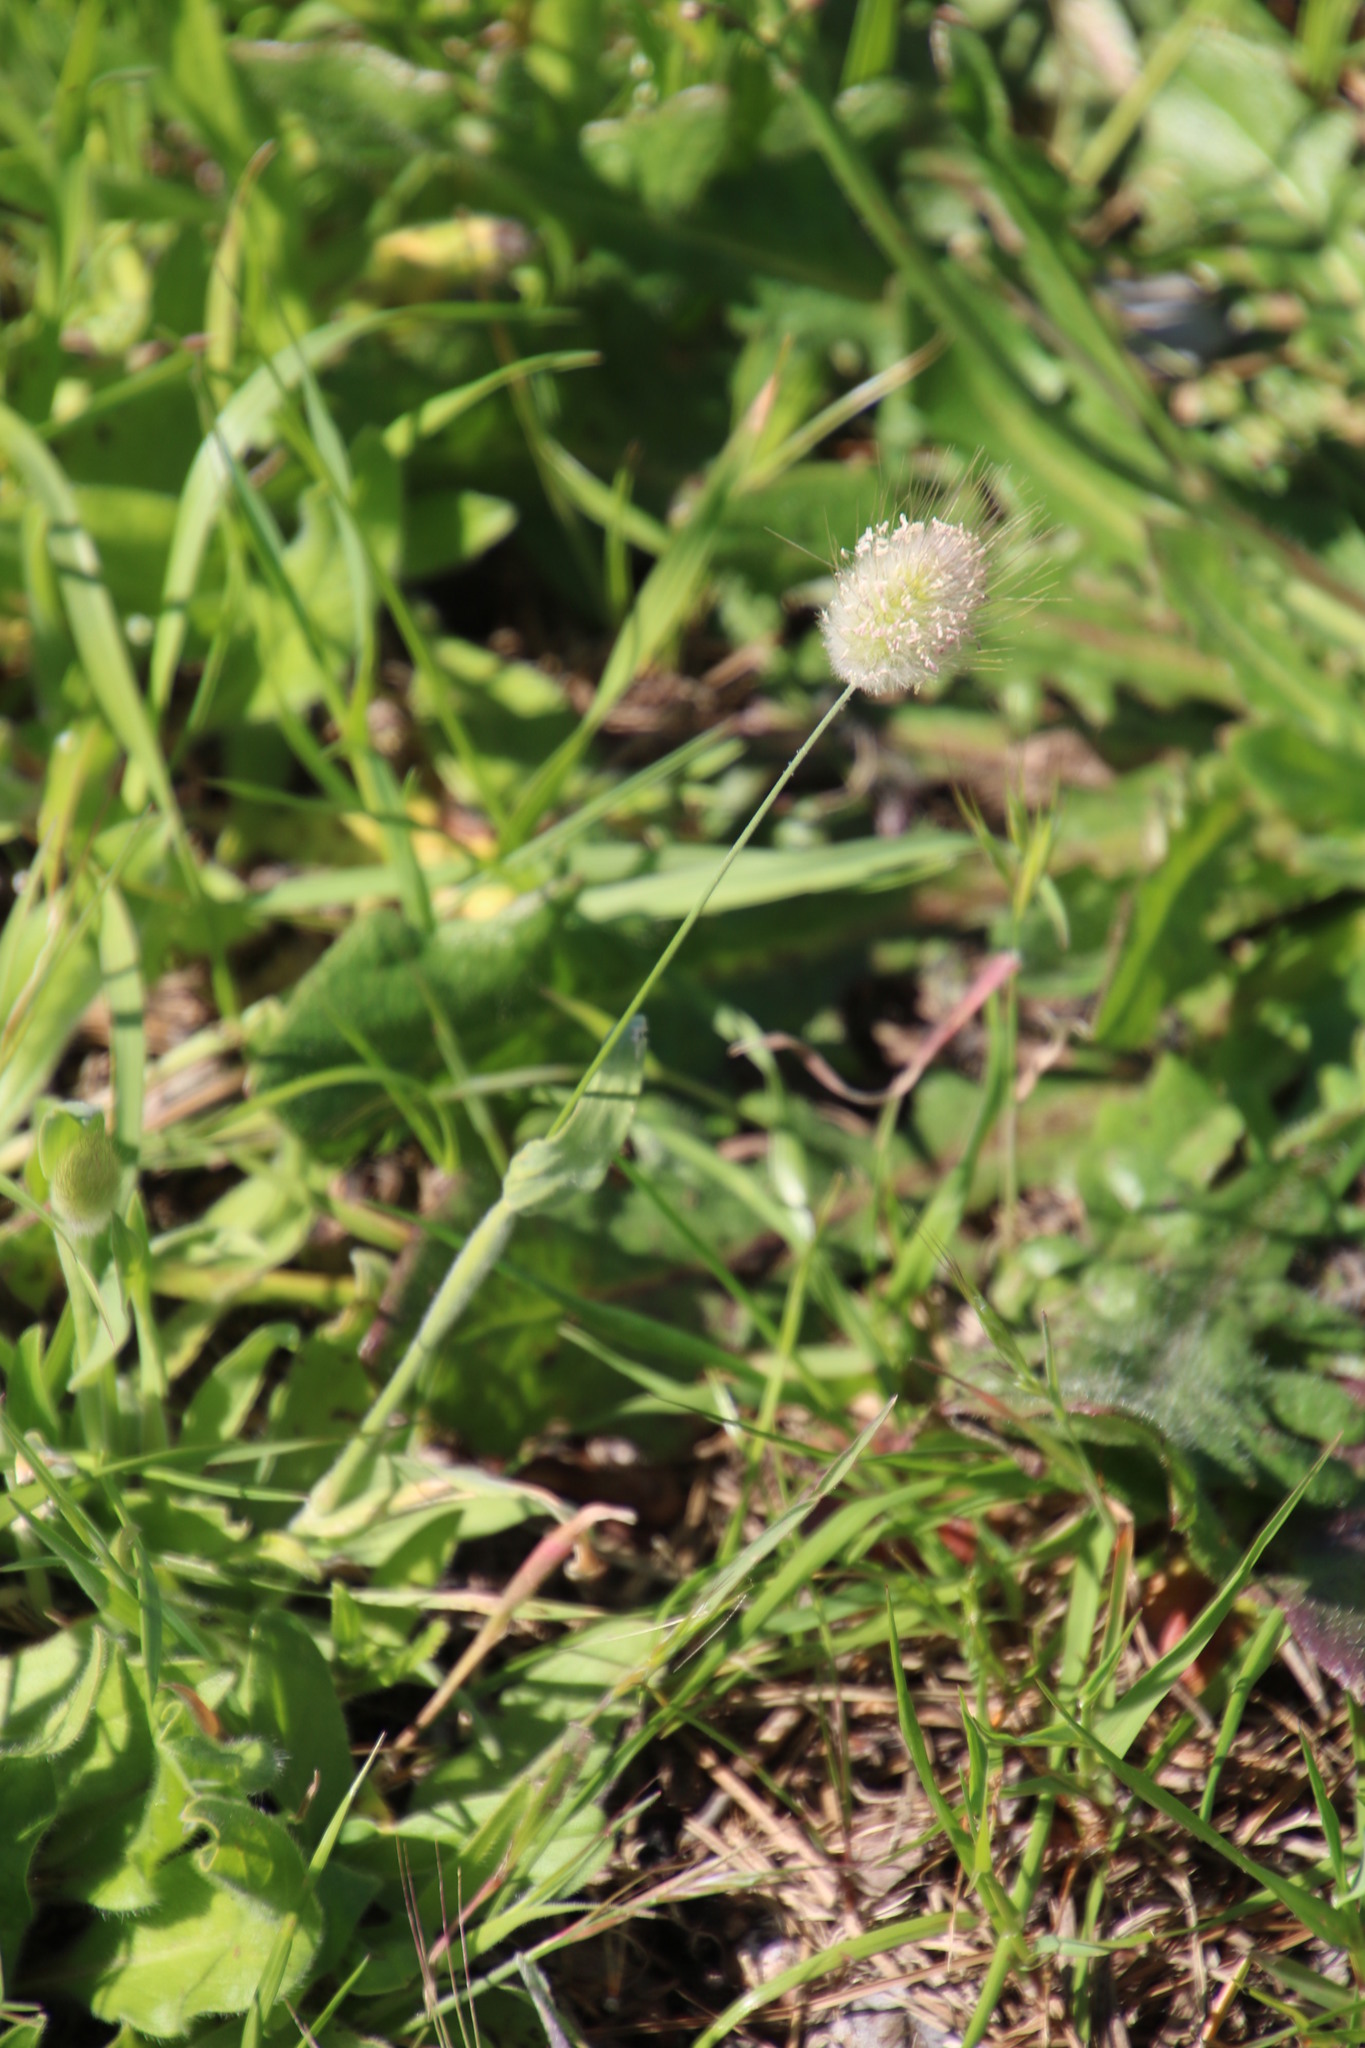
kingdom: Plantae
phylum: Tracheophyta
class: Liliopsida
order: Poales
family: Poaceae
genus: Lagurus
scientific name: Lagurus ovatus
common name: Hare's-tail
